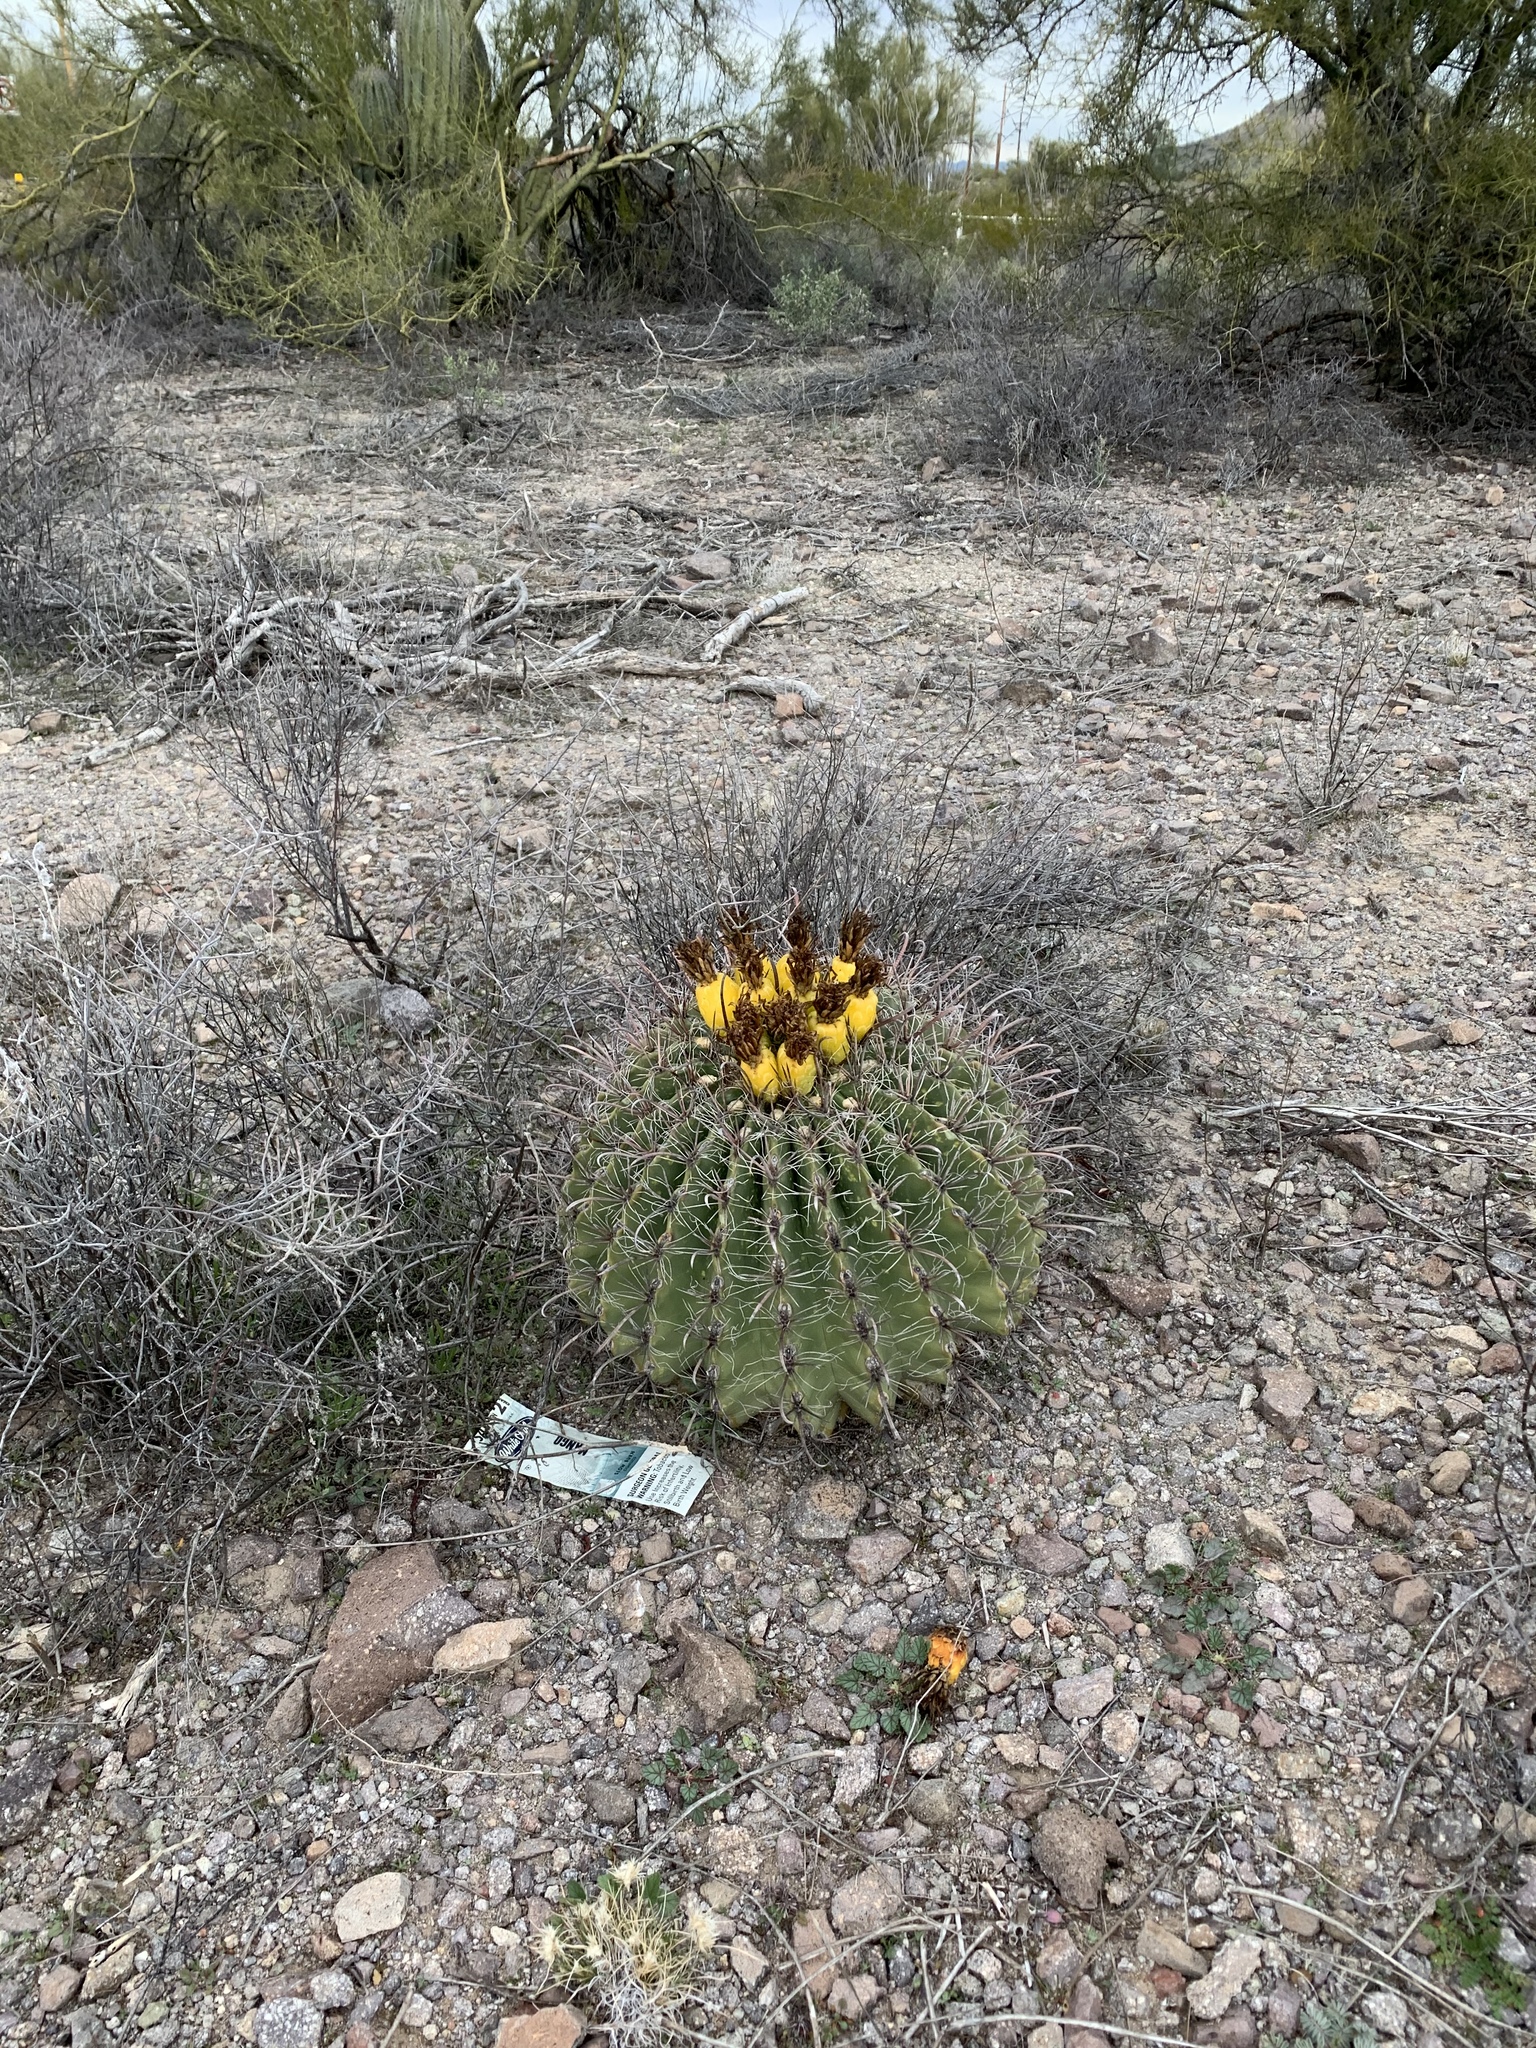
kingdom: Plantae
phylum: Tracheophyta
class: Magnoliopsida
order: Caryophyllales
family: Cactaceae
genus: Ferocactus
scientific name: Ferocactus wislizeni
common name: Candy barrel cactus
